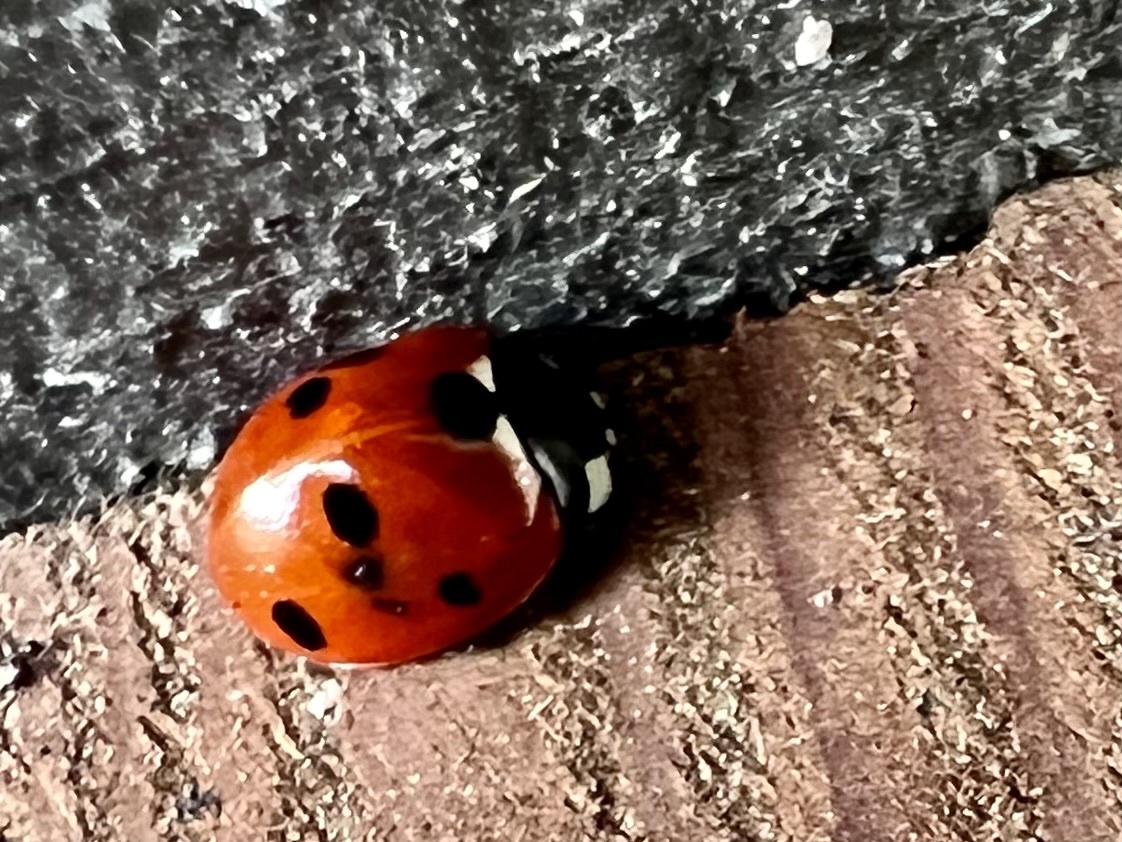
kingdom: Animalia
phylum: Arthropoda
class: Insecta
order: Coleoptera
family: Coccinellidae
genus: Coccinella
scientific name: Coccinella septempunctata
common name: Sevenspotted lady beetle
